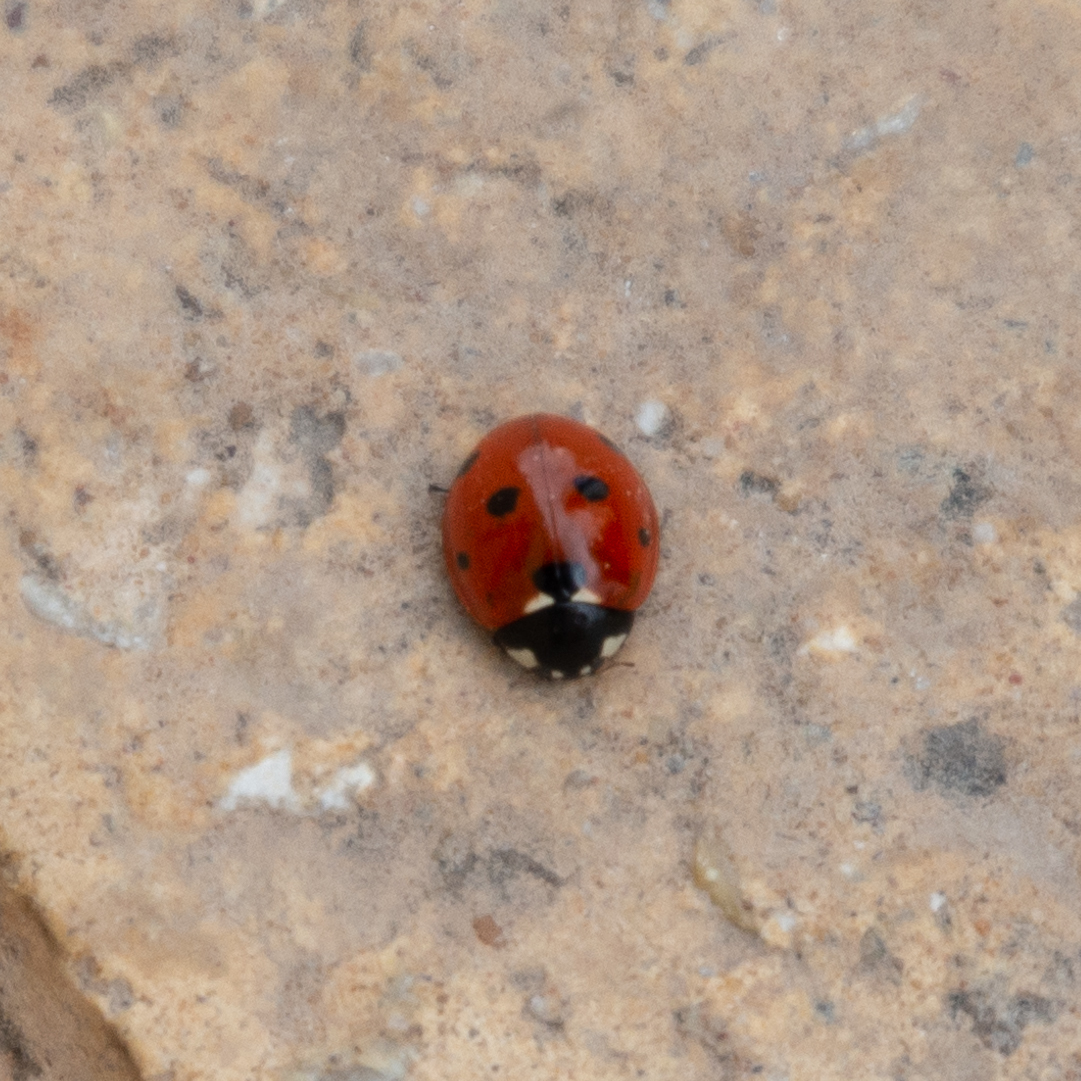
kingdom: Animalia
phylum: Arthropoda
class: Insecta
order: Coleoptera
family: Coccinellidae
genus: Coccinella
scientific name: Coccinella septempunctata
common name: Sevenspotted lady beetle
